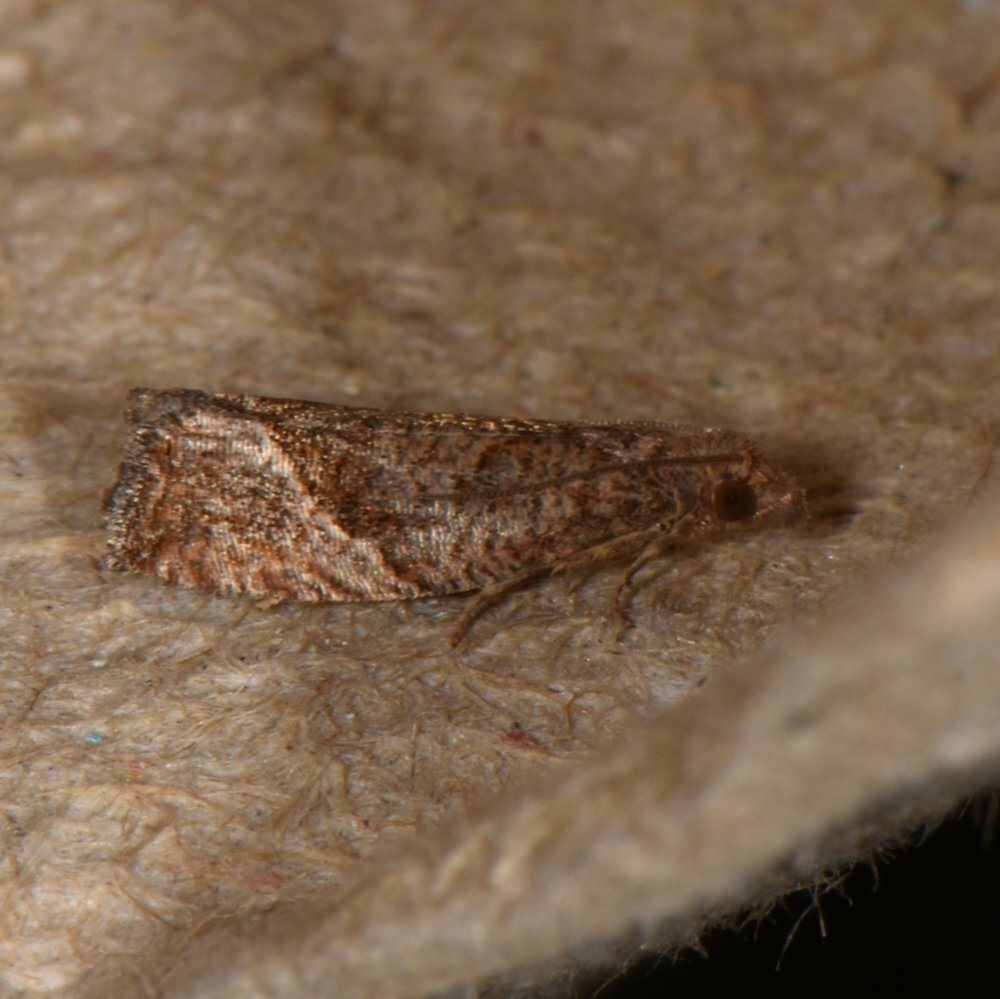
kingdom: Animalia
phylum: Arthropoda
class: Insecta
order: Lepidoptera
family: Tortricidae
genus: Pelochrista
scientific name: Pelochrista derelicta
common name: Derelict pelochrista moth
